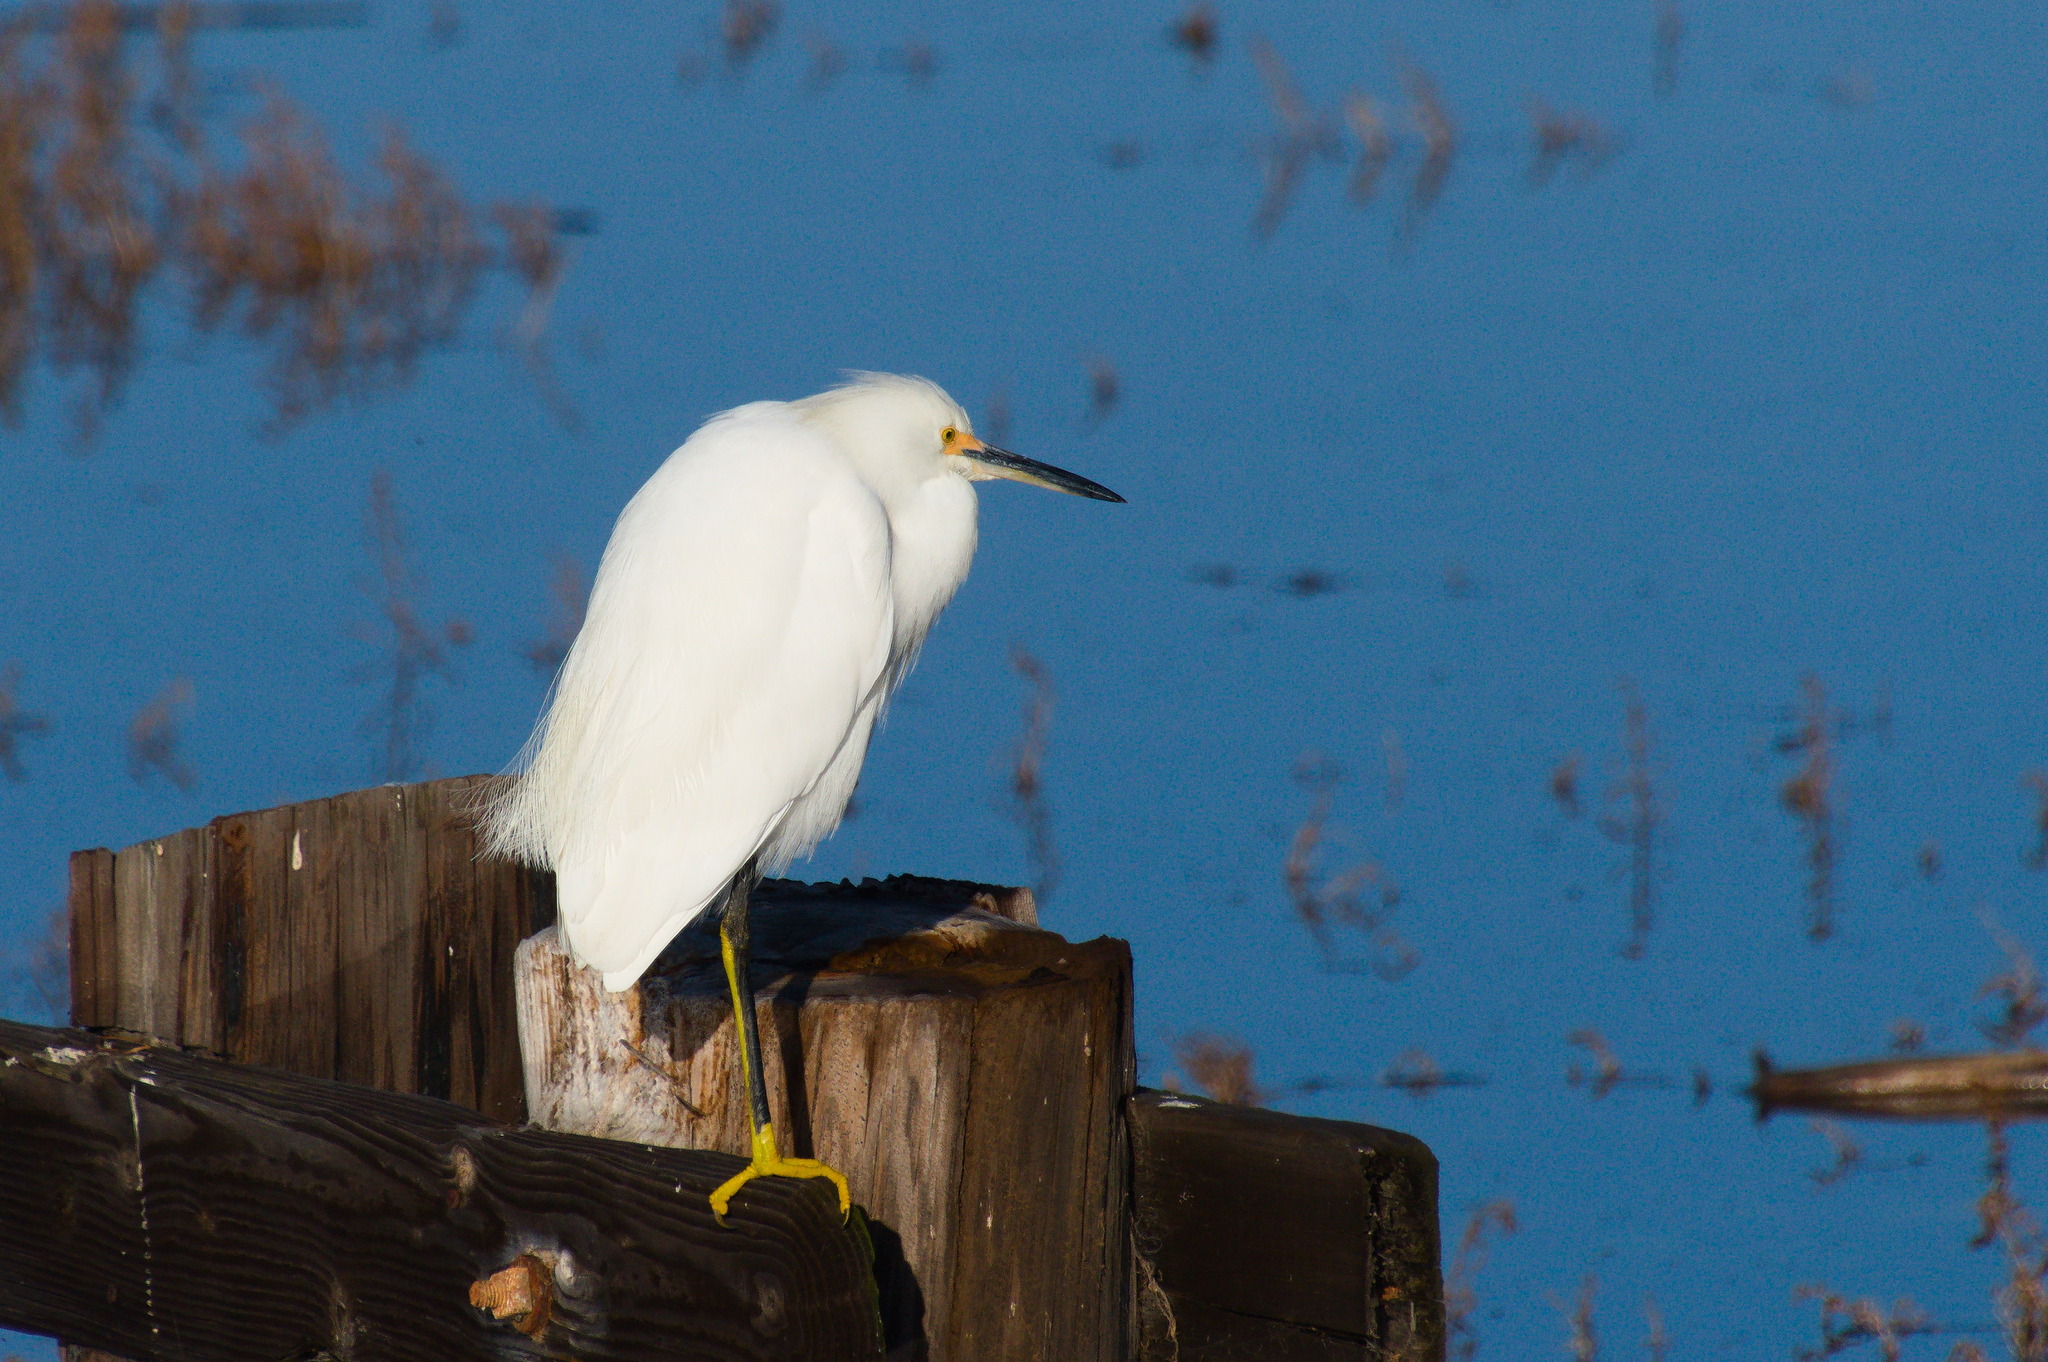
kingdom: Animalia
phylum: Chordata
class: Aves
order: Pelecaniformes
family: Ardeidae
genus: Egretta
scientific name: Egretta thula
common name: Snowy egret
